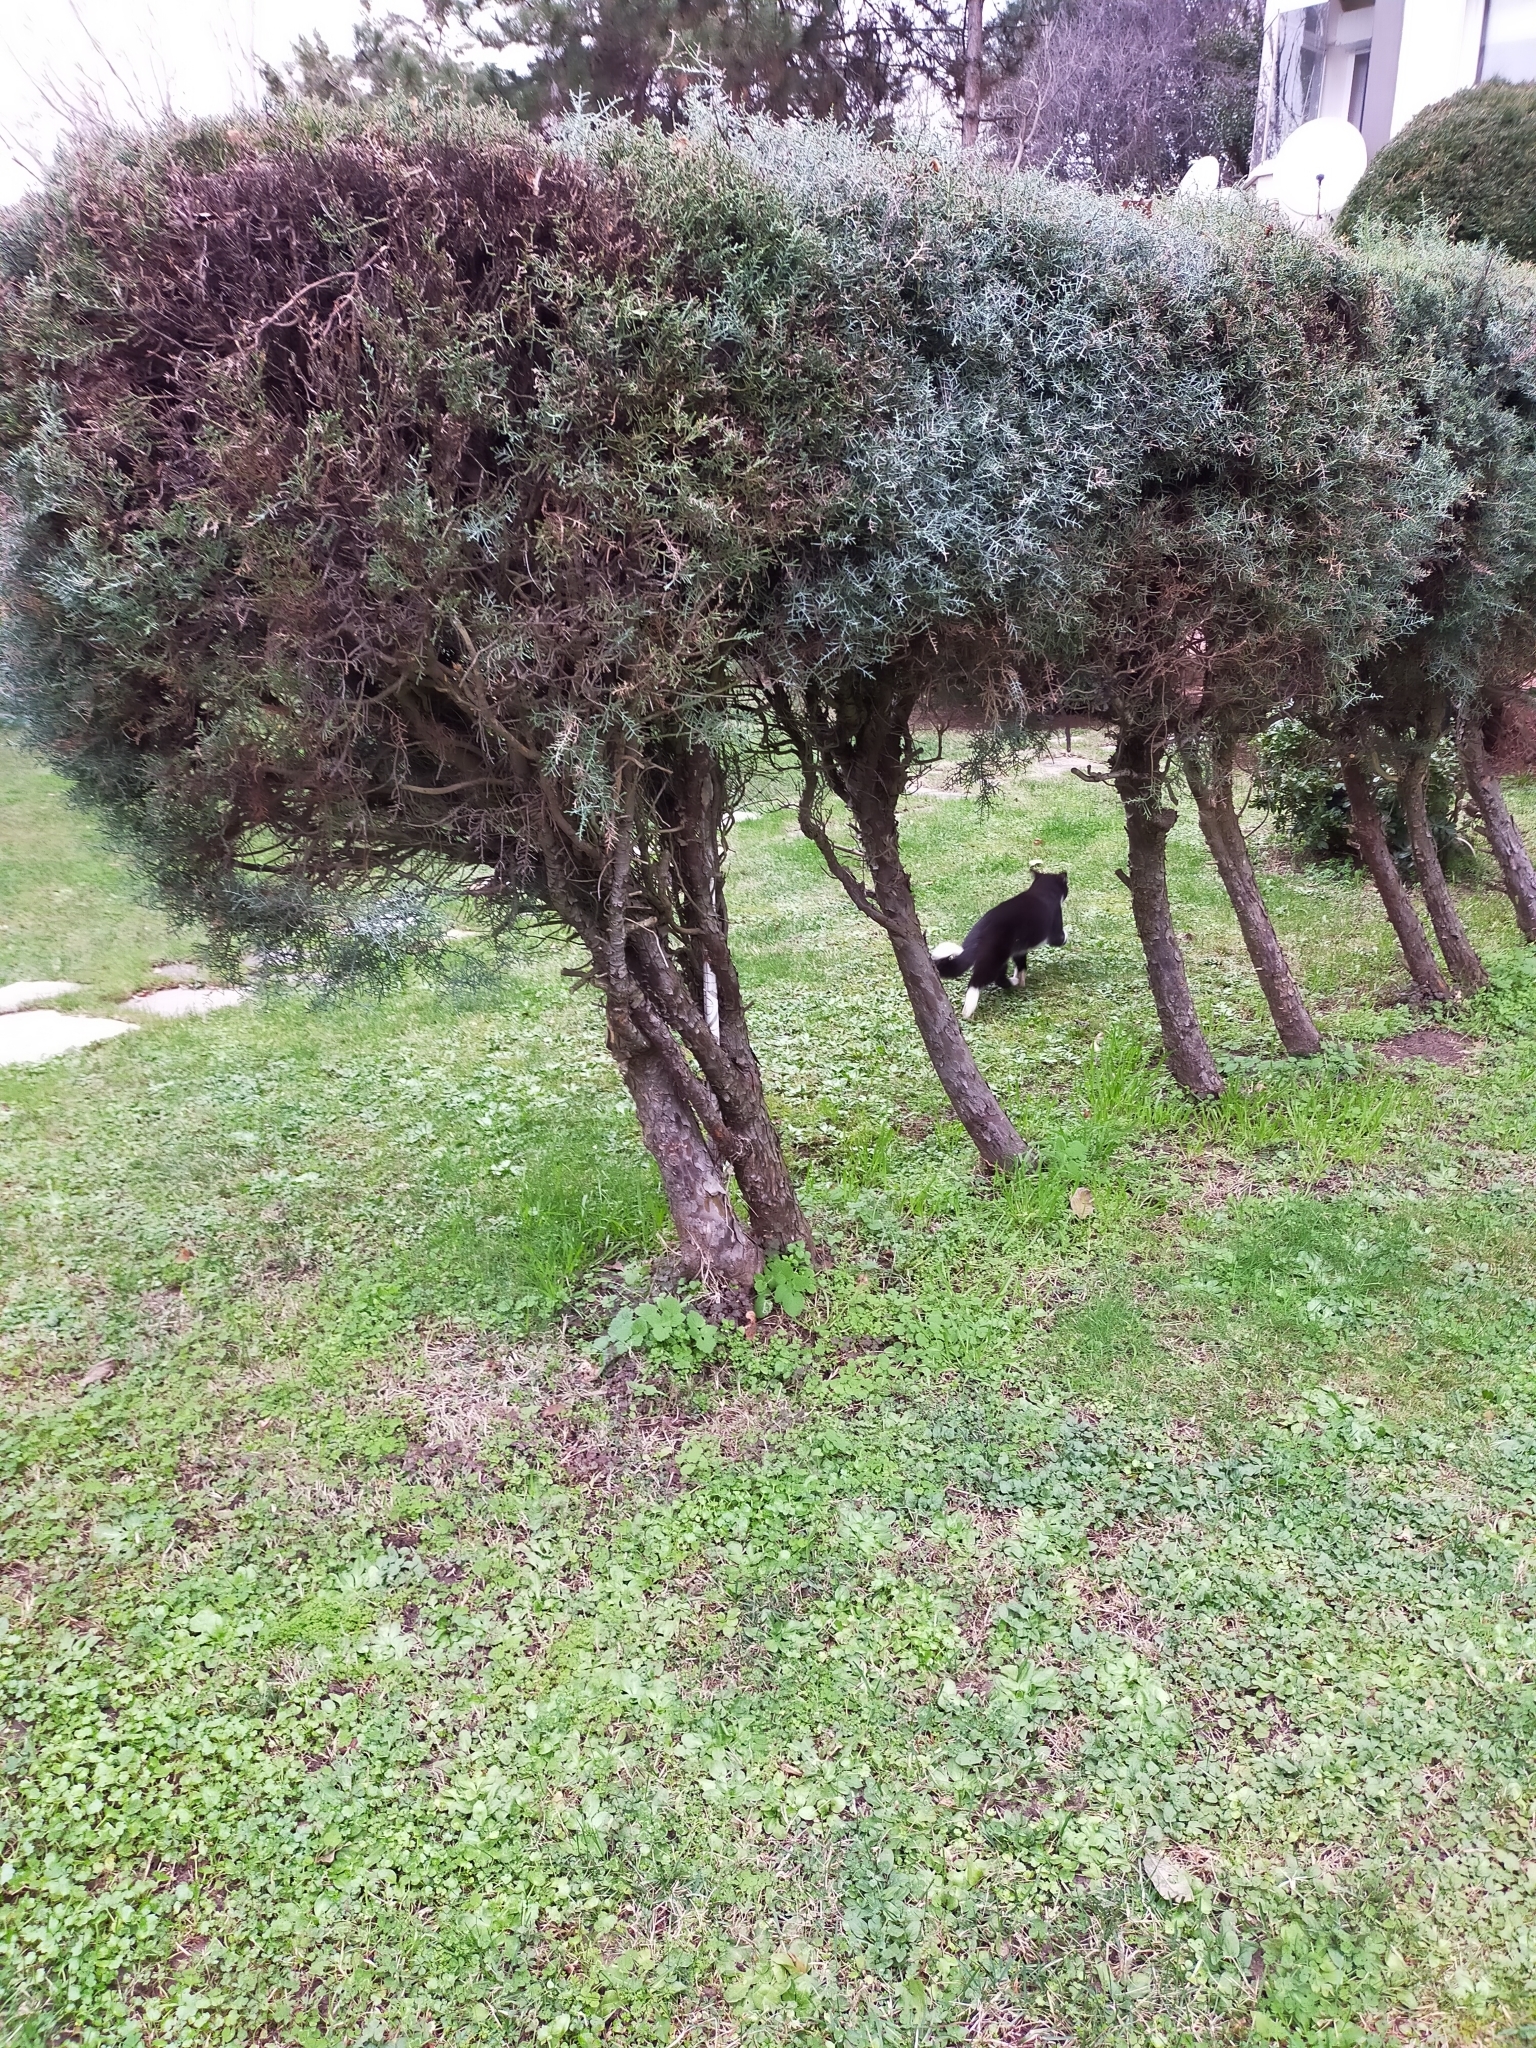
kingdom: Animalia
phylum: Chordata
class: Mammalia
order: Carnivora
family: Felidae
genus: Felis
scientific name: Felis catus
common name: Domestic cat
